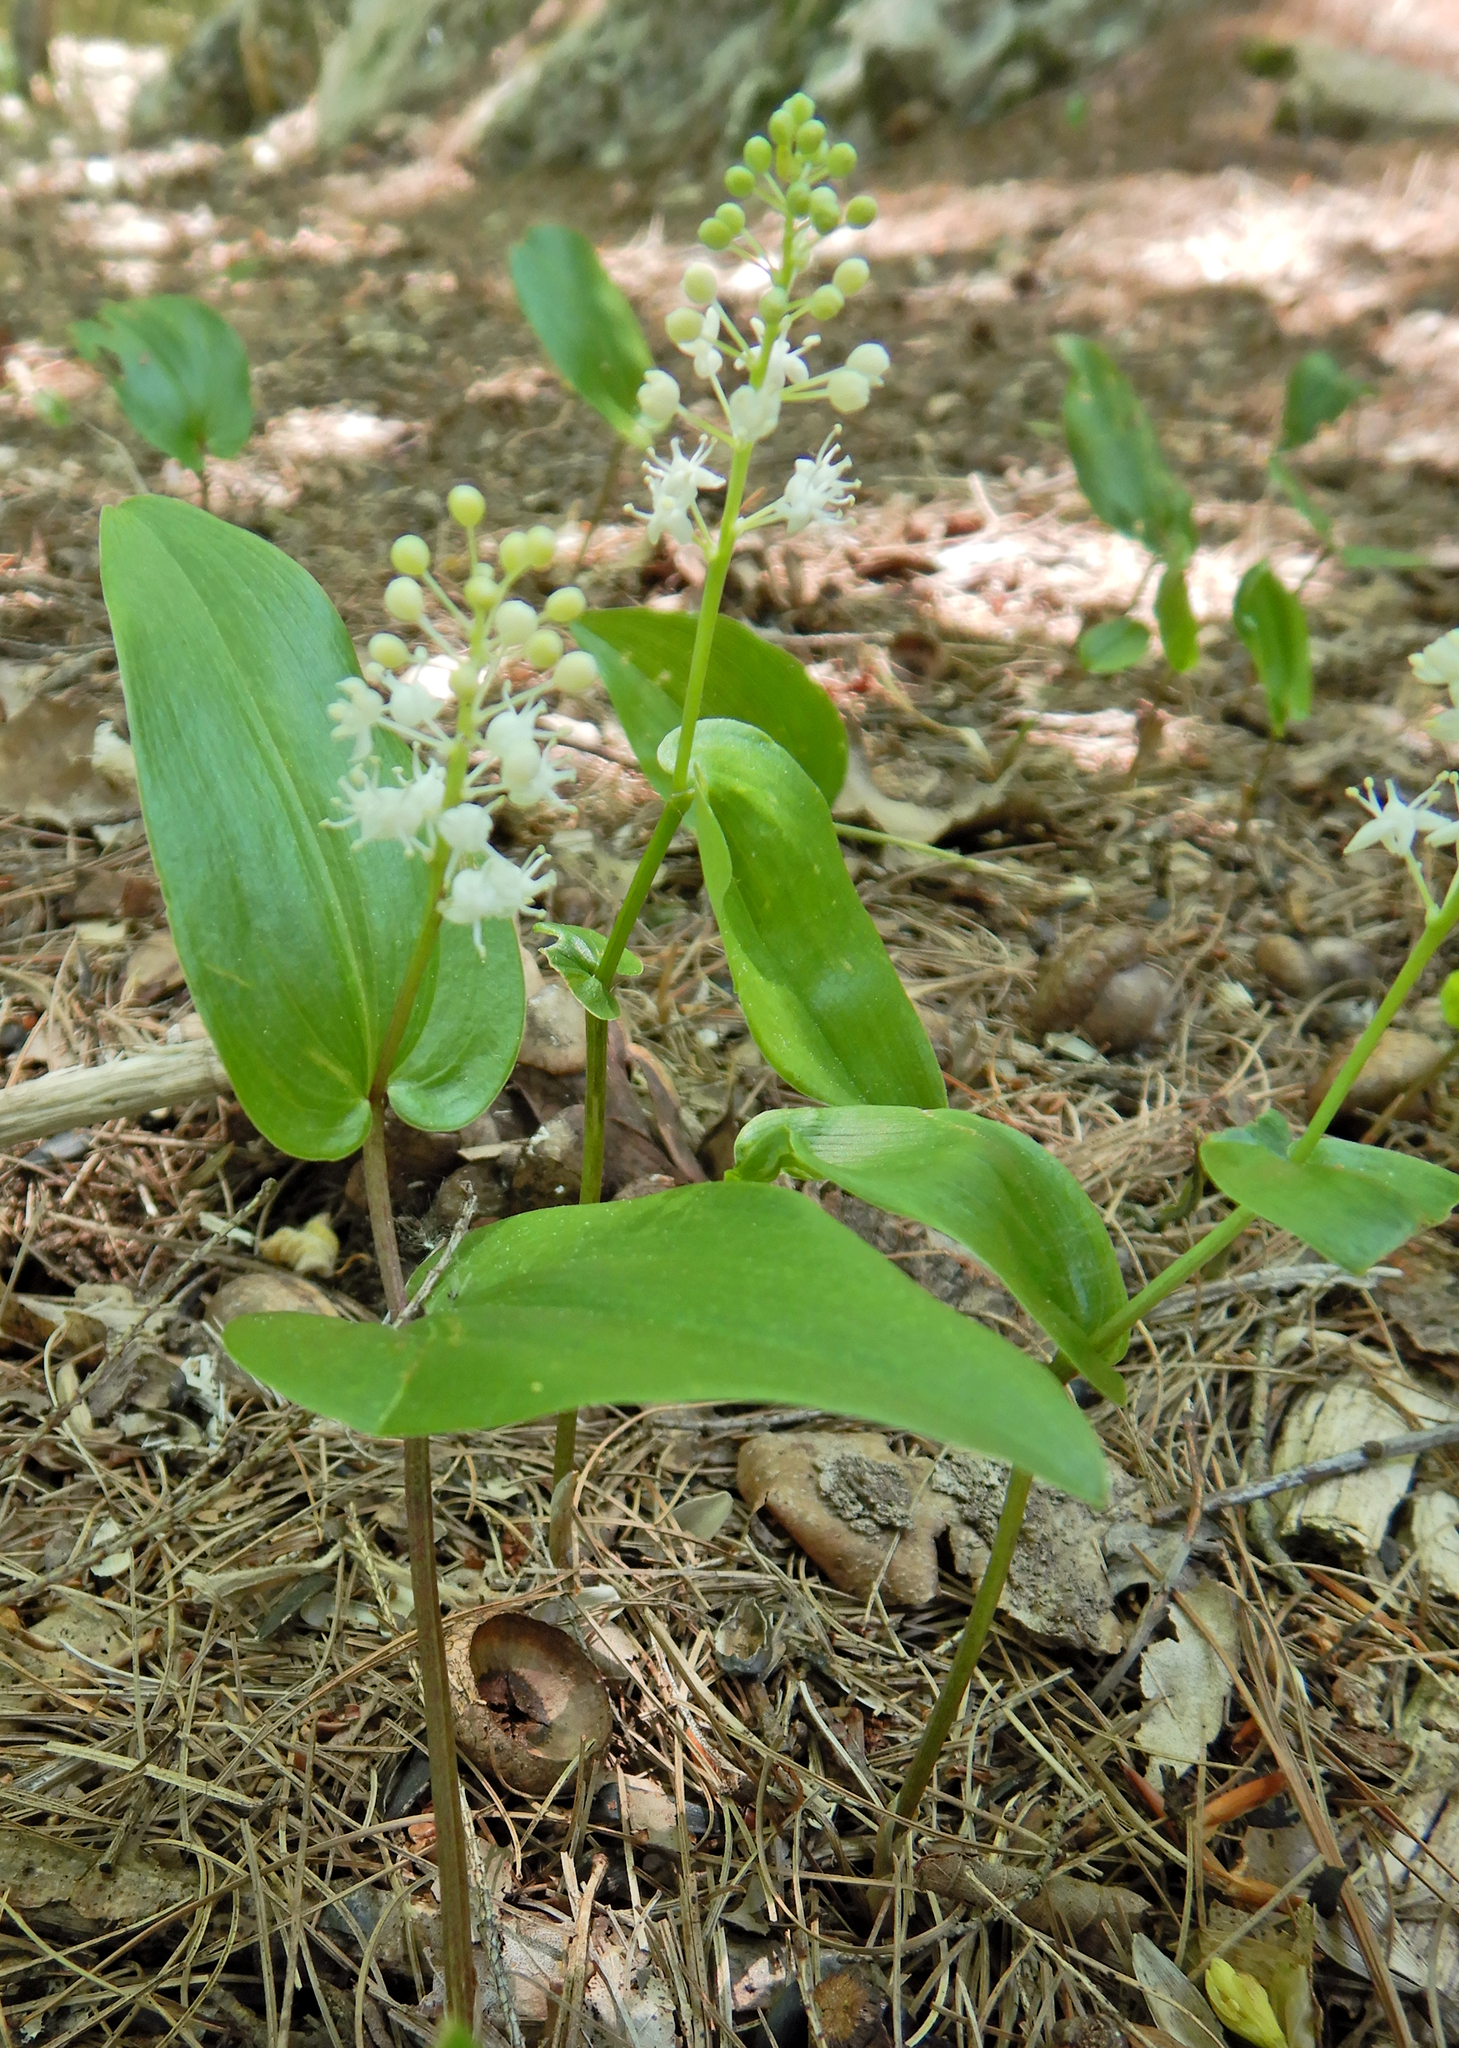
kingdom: Plantae
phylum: Tracheophyta
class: Liliopsida
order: Asparagales
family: Asparagaceae
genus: Maianthemum
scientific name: Maianthemum canadense
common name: False lily-of-the-valley
